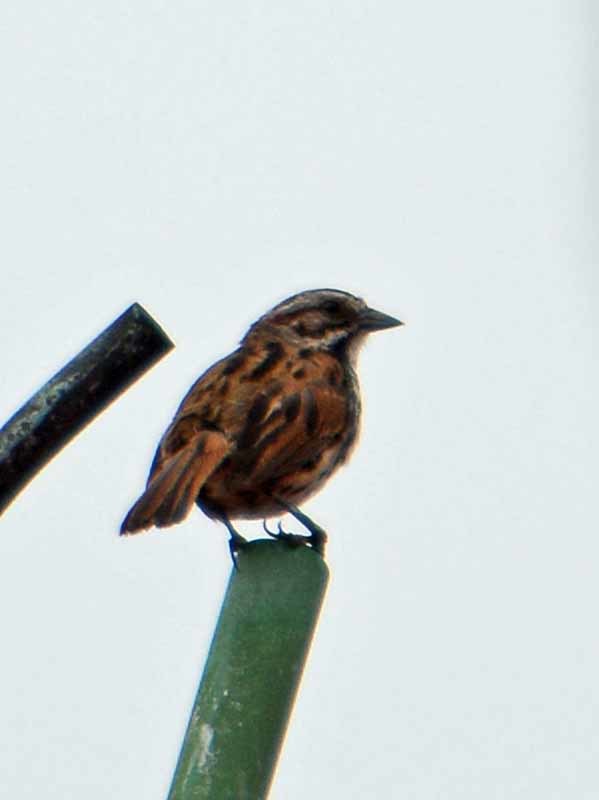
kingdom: Animalia
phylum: Chordata
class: Aves
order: Passeriformes
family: Passerellidae
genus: Melospiza
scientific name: Melospiza melodia
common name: Song sparrow
